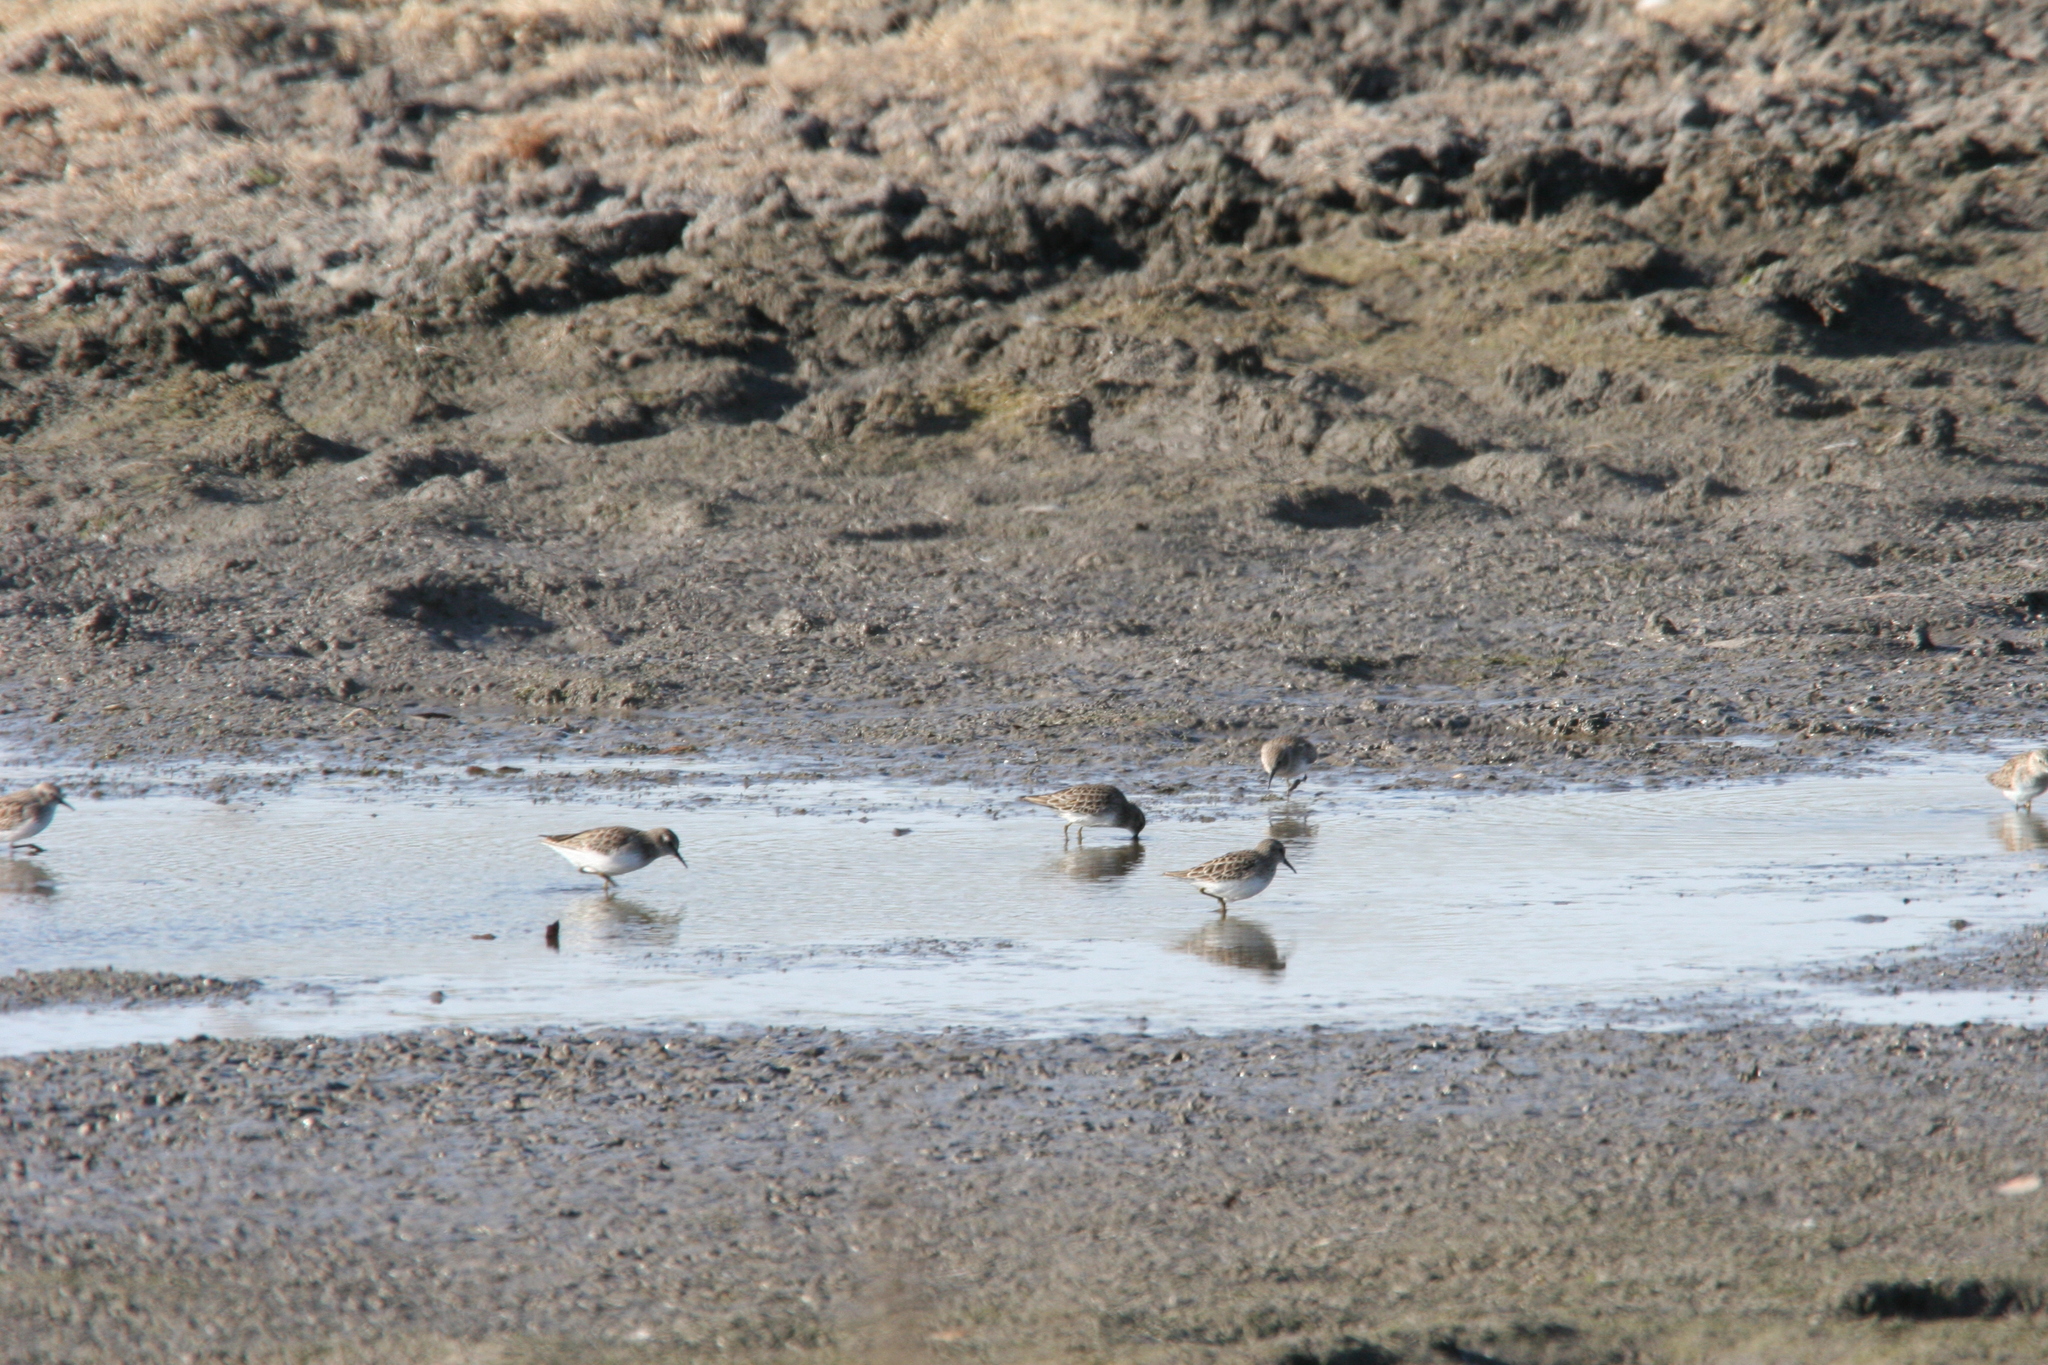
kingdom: Animalia
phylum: Chordata
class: Aves
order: Charadriiformes
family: Scolopacidae
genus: Calidris
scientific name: Calidris minutilla
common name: Least sandpiper
